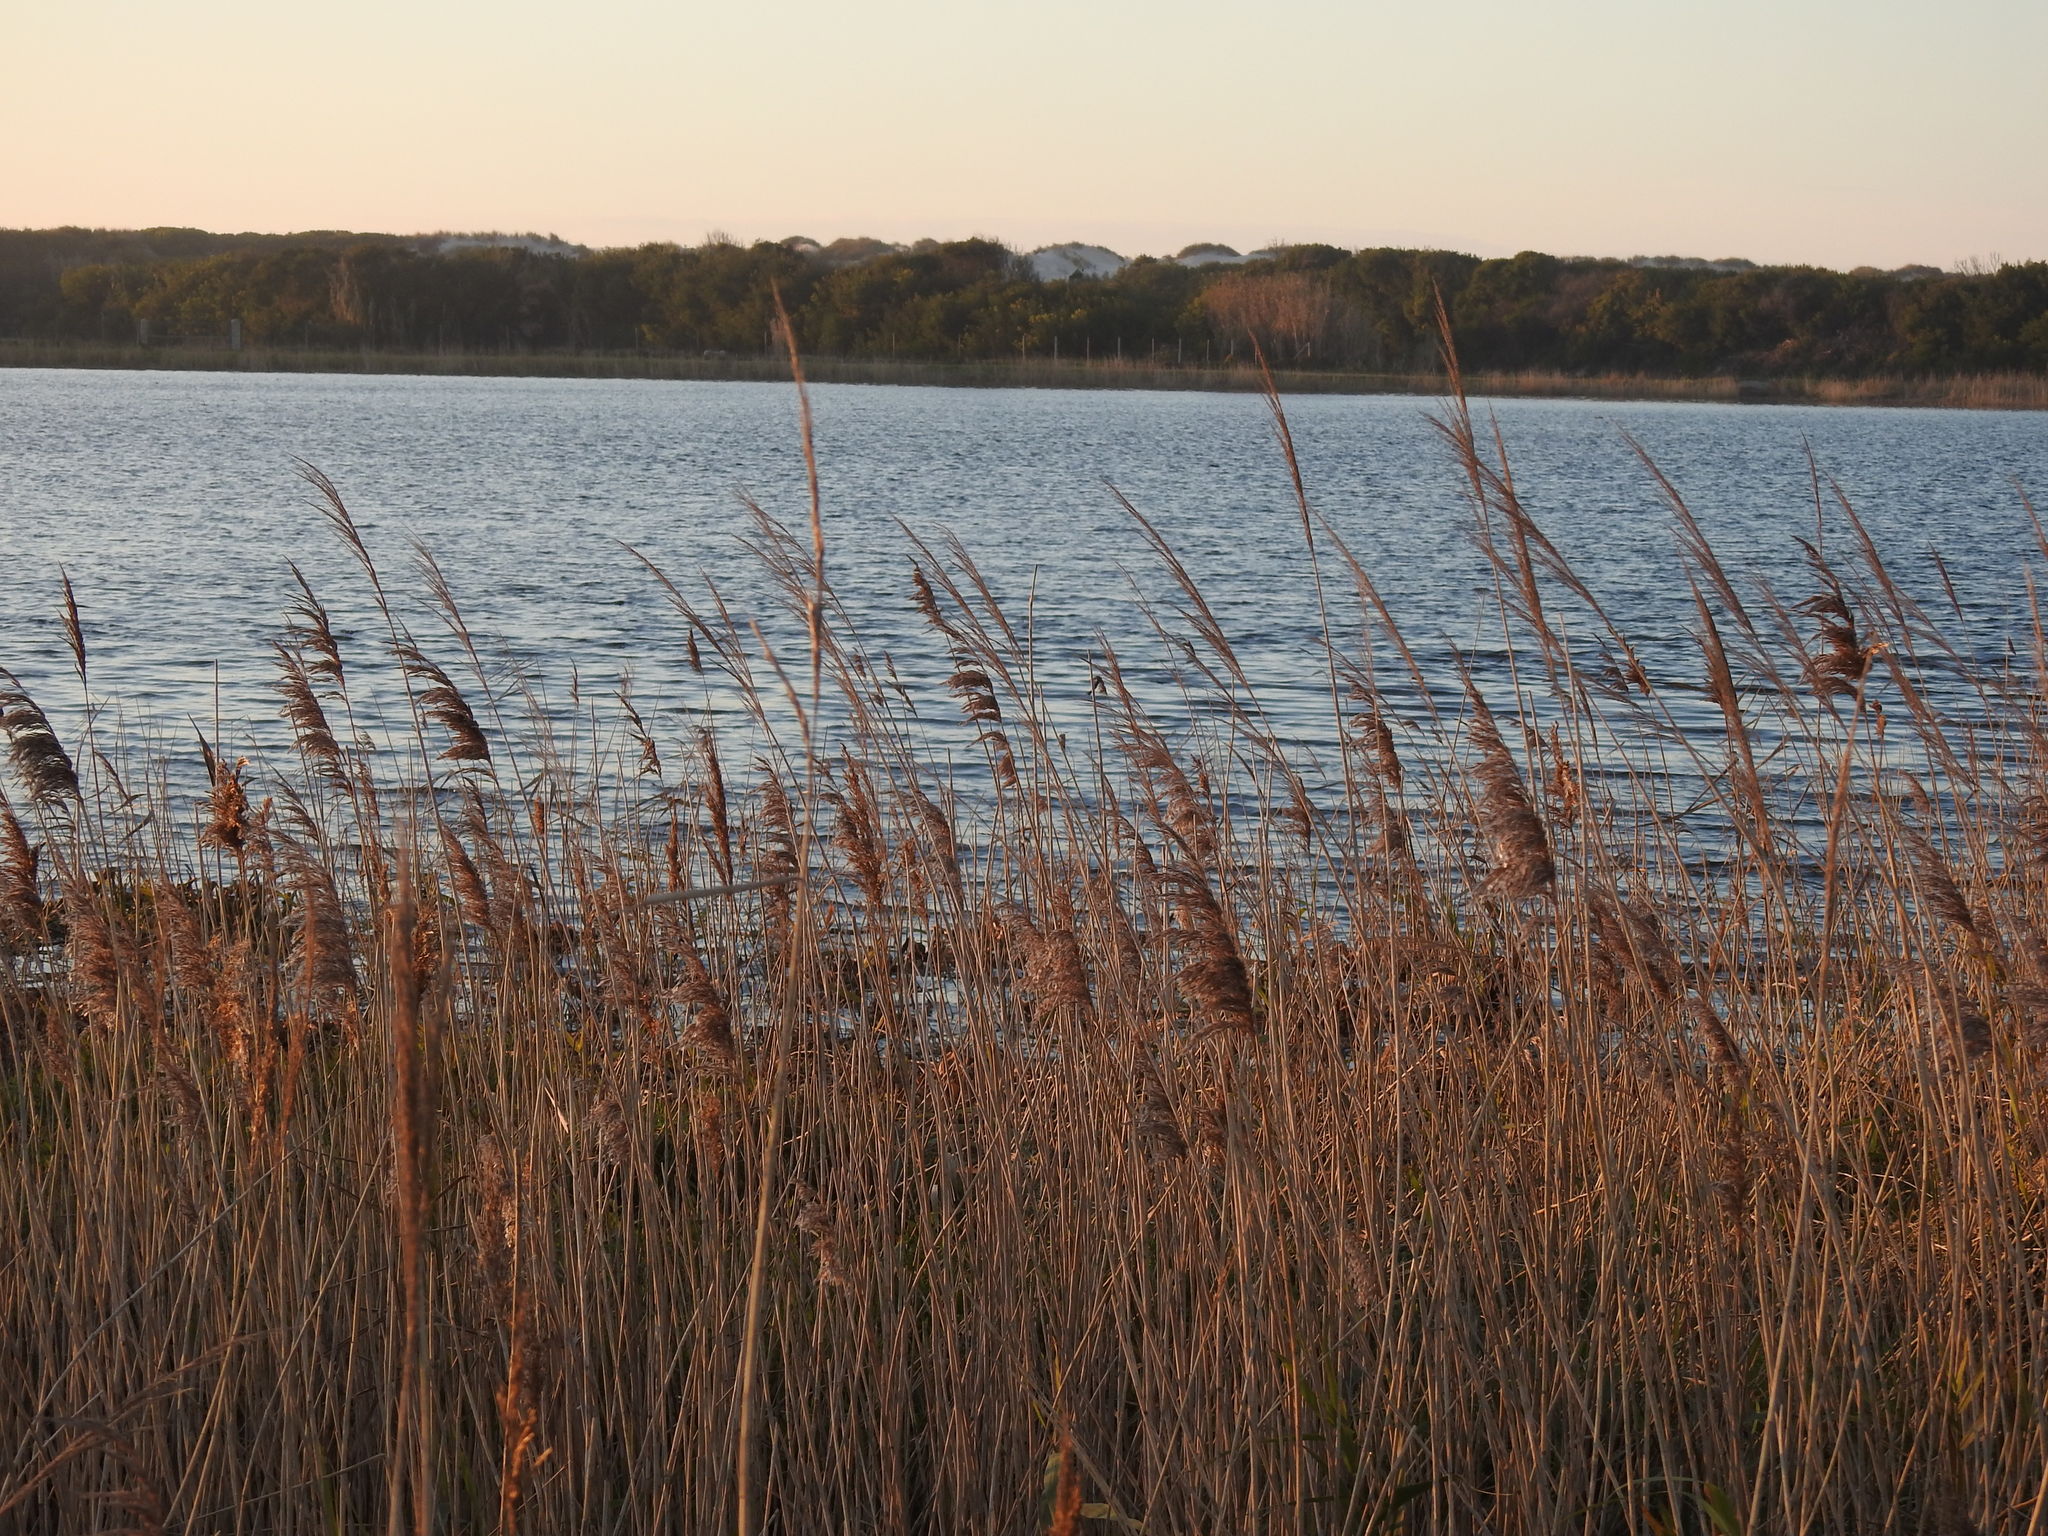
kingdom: Plantae
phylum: Tracheophyta
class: Liliopsida
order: Poales
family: Poaceae
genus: Phragmites
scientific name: Phragmites australis
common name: Common reed
